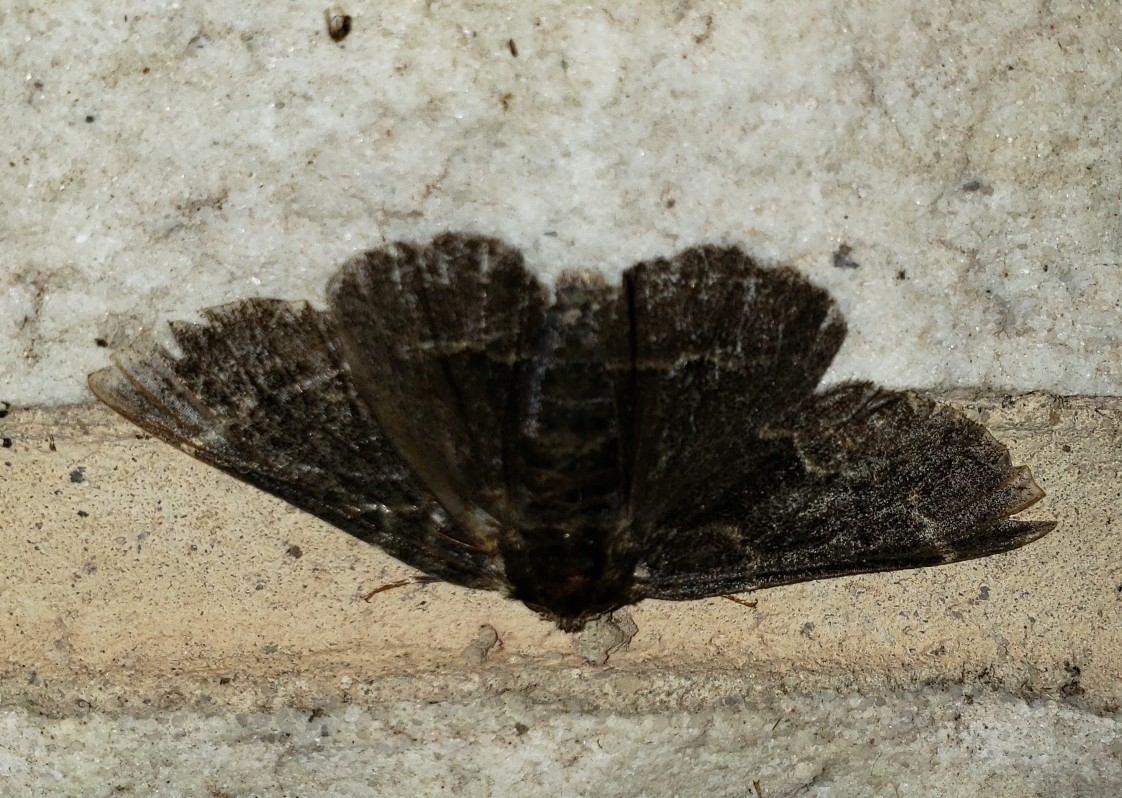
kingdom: Animalia
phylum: Arthropoda
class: Insecta
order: Lepidoptera
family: Geometridae
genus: Phaeoura
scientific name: Phaeoura quernaria
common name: Oak beauty
